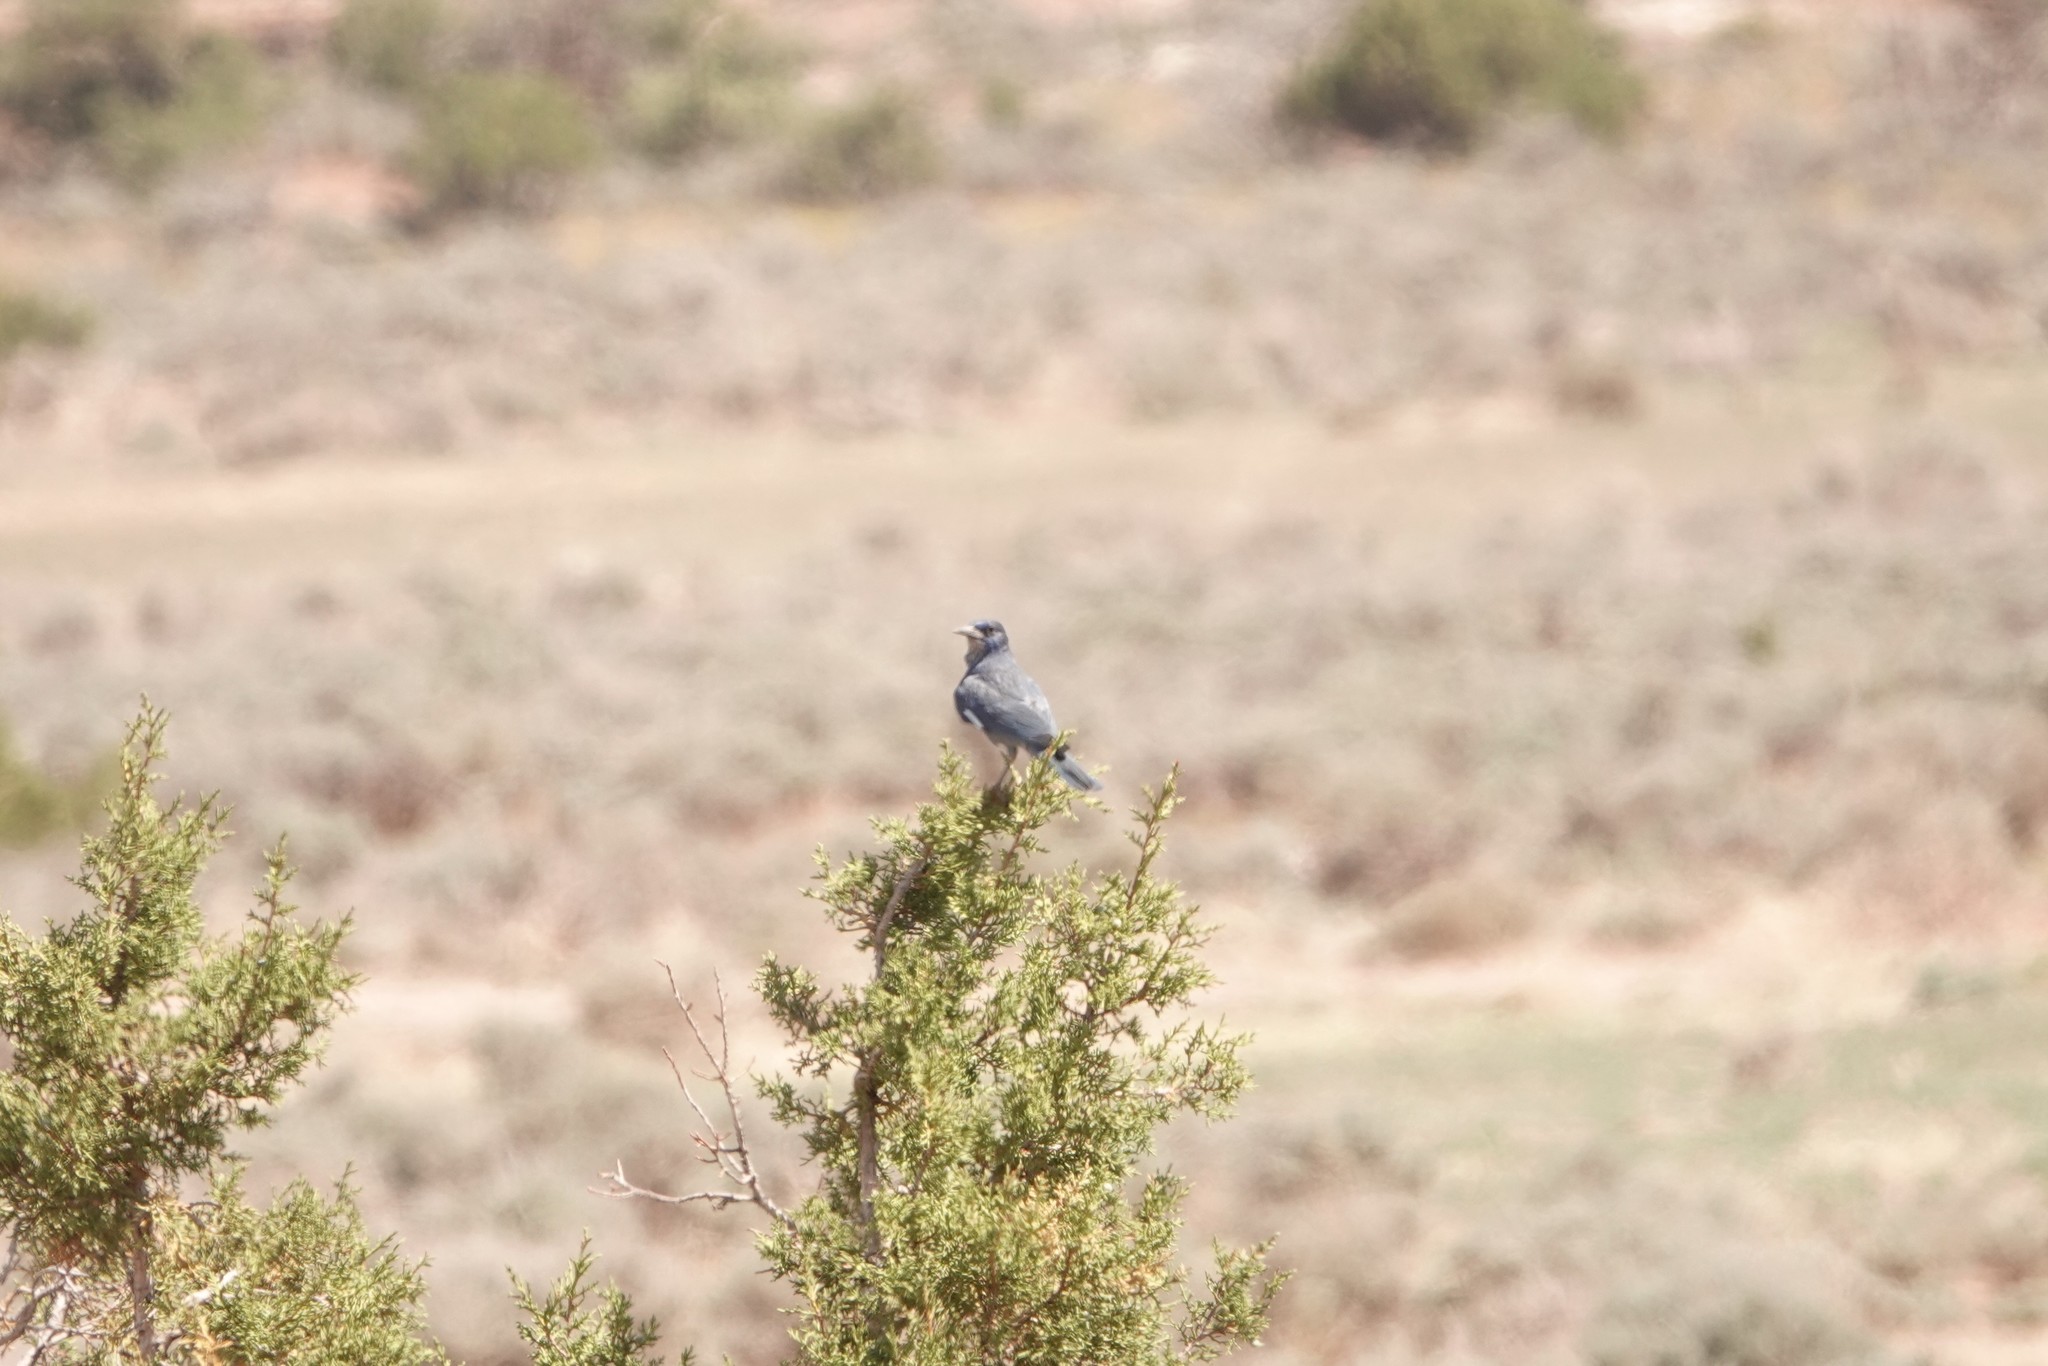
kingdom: Animalia
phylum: Chordata
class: Aves
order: Passeriformes
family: Corvidae
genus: Gymnorhinus
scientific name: Gymnorhinus cyanocephalus
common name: Pinyon jay
